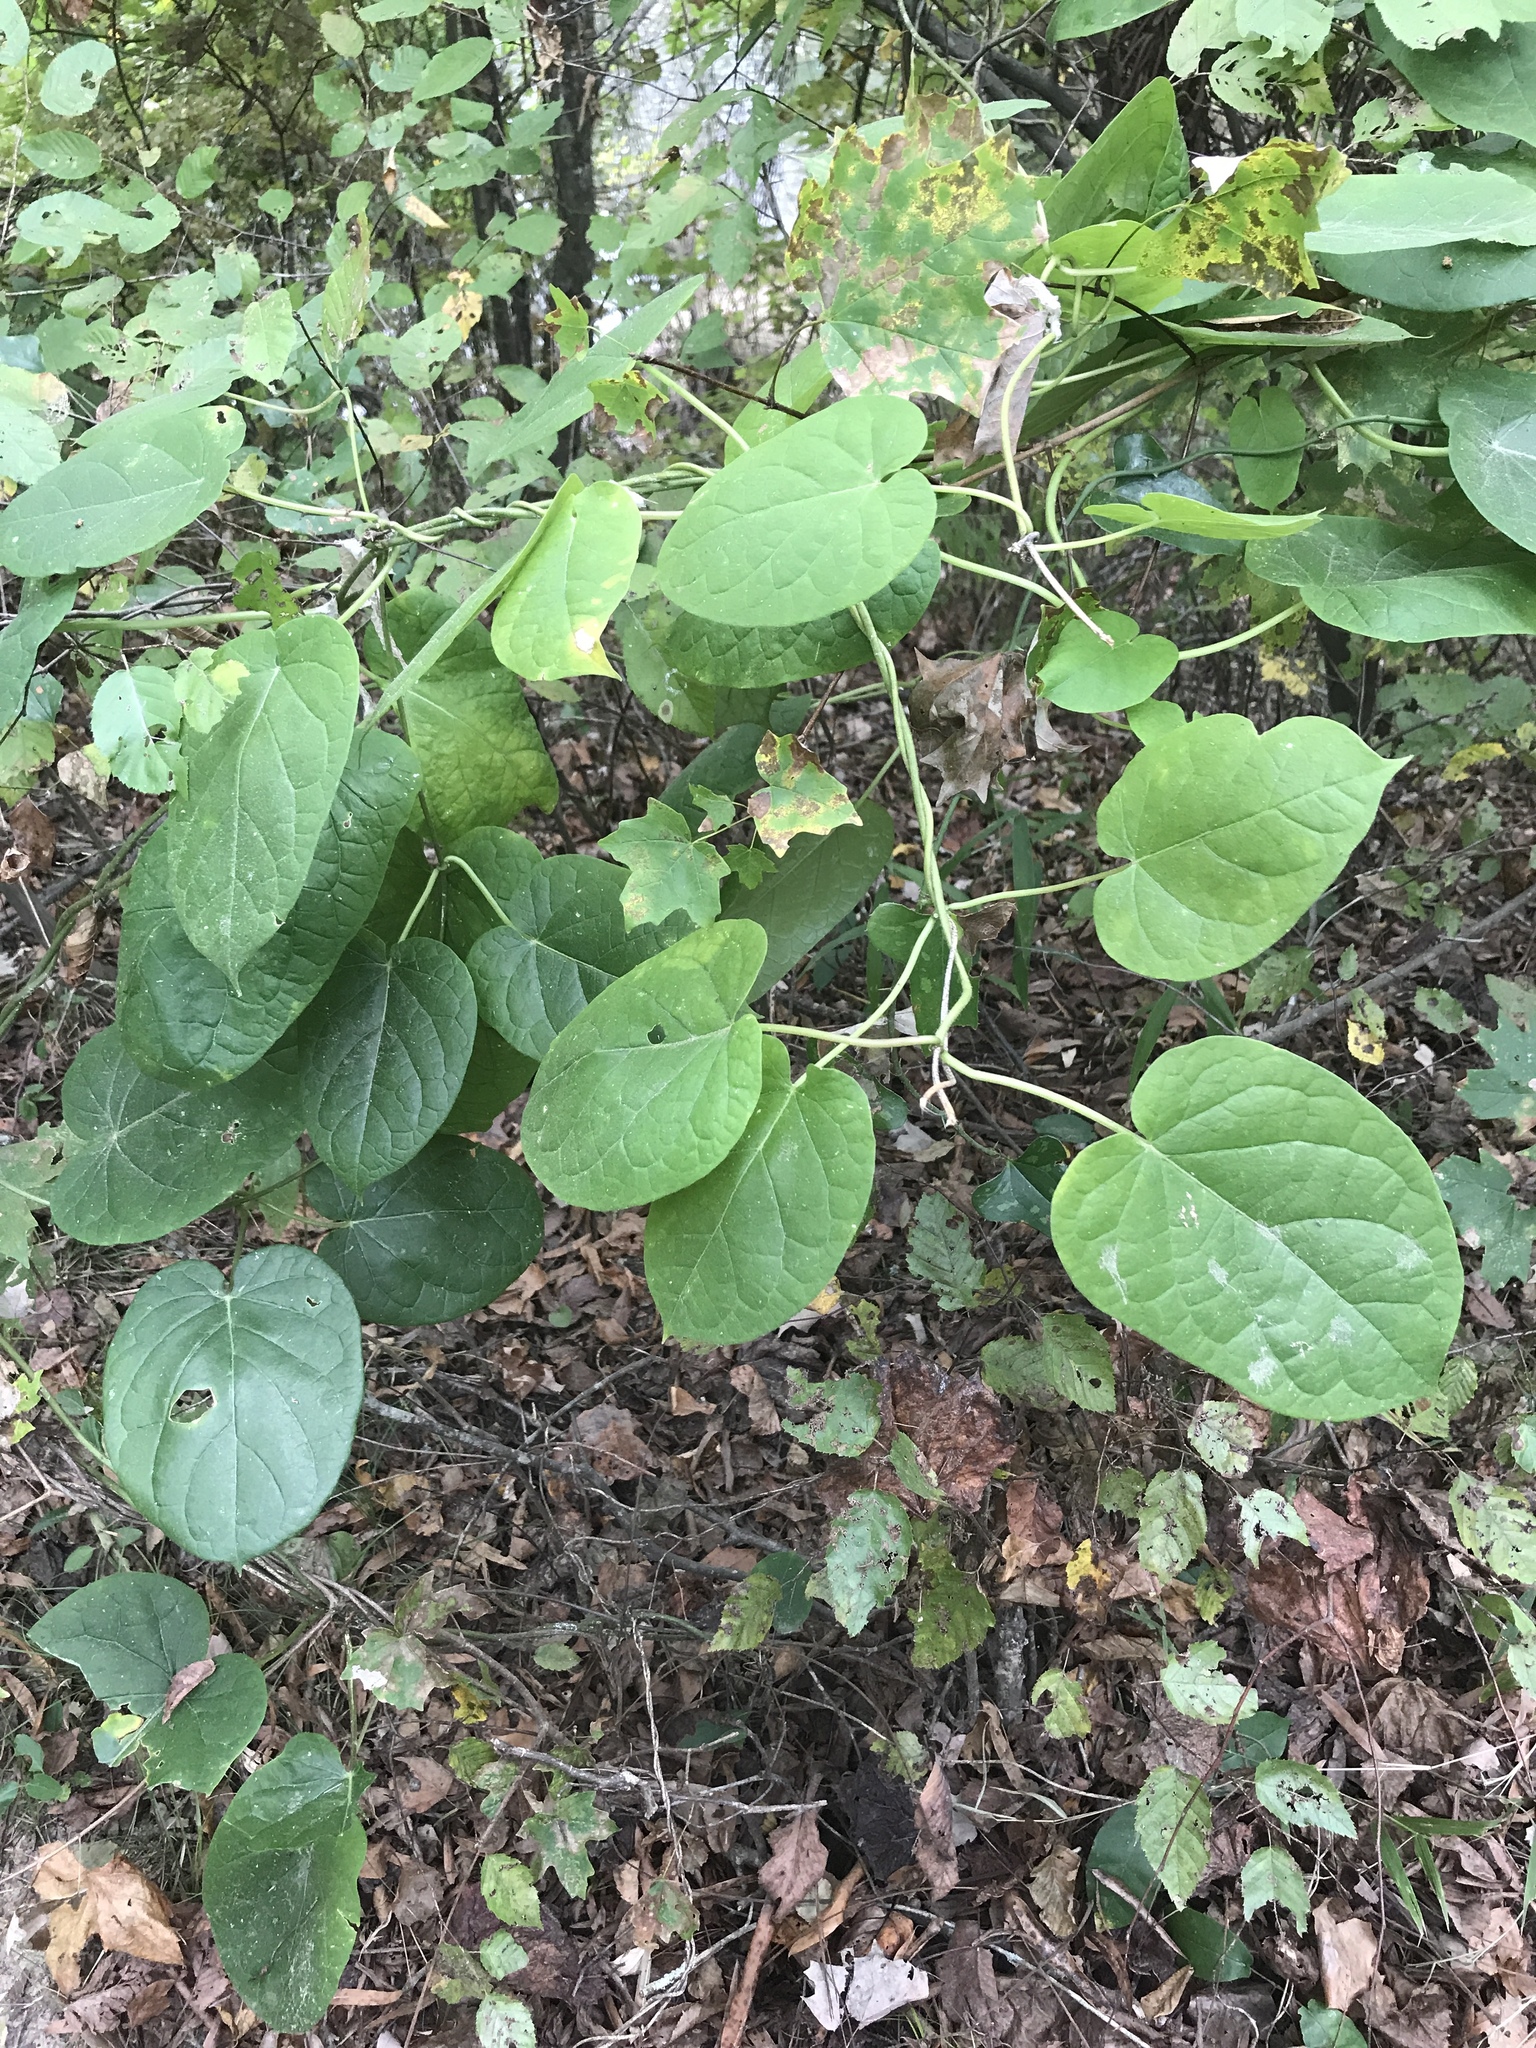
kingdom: Plantae
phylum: Tracheophyta
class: Magnoliopsida
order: Gentianales
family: Apocynaceae
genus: Gonolobus
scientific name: Gonolobus suberosus
